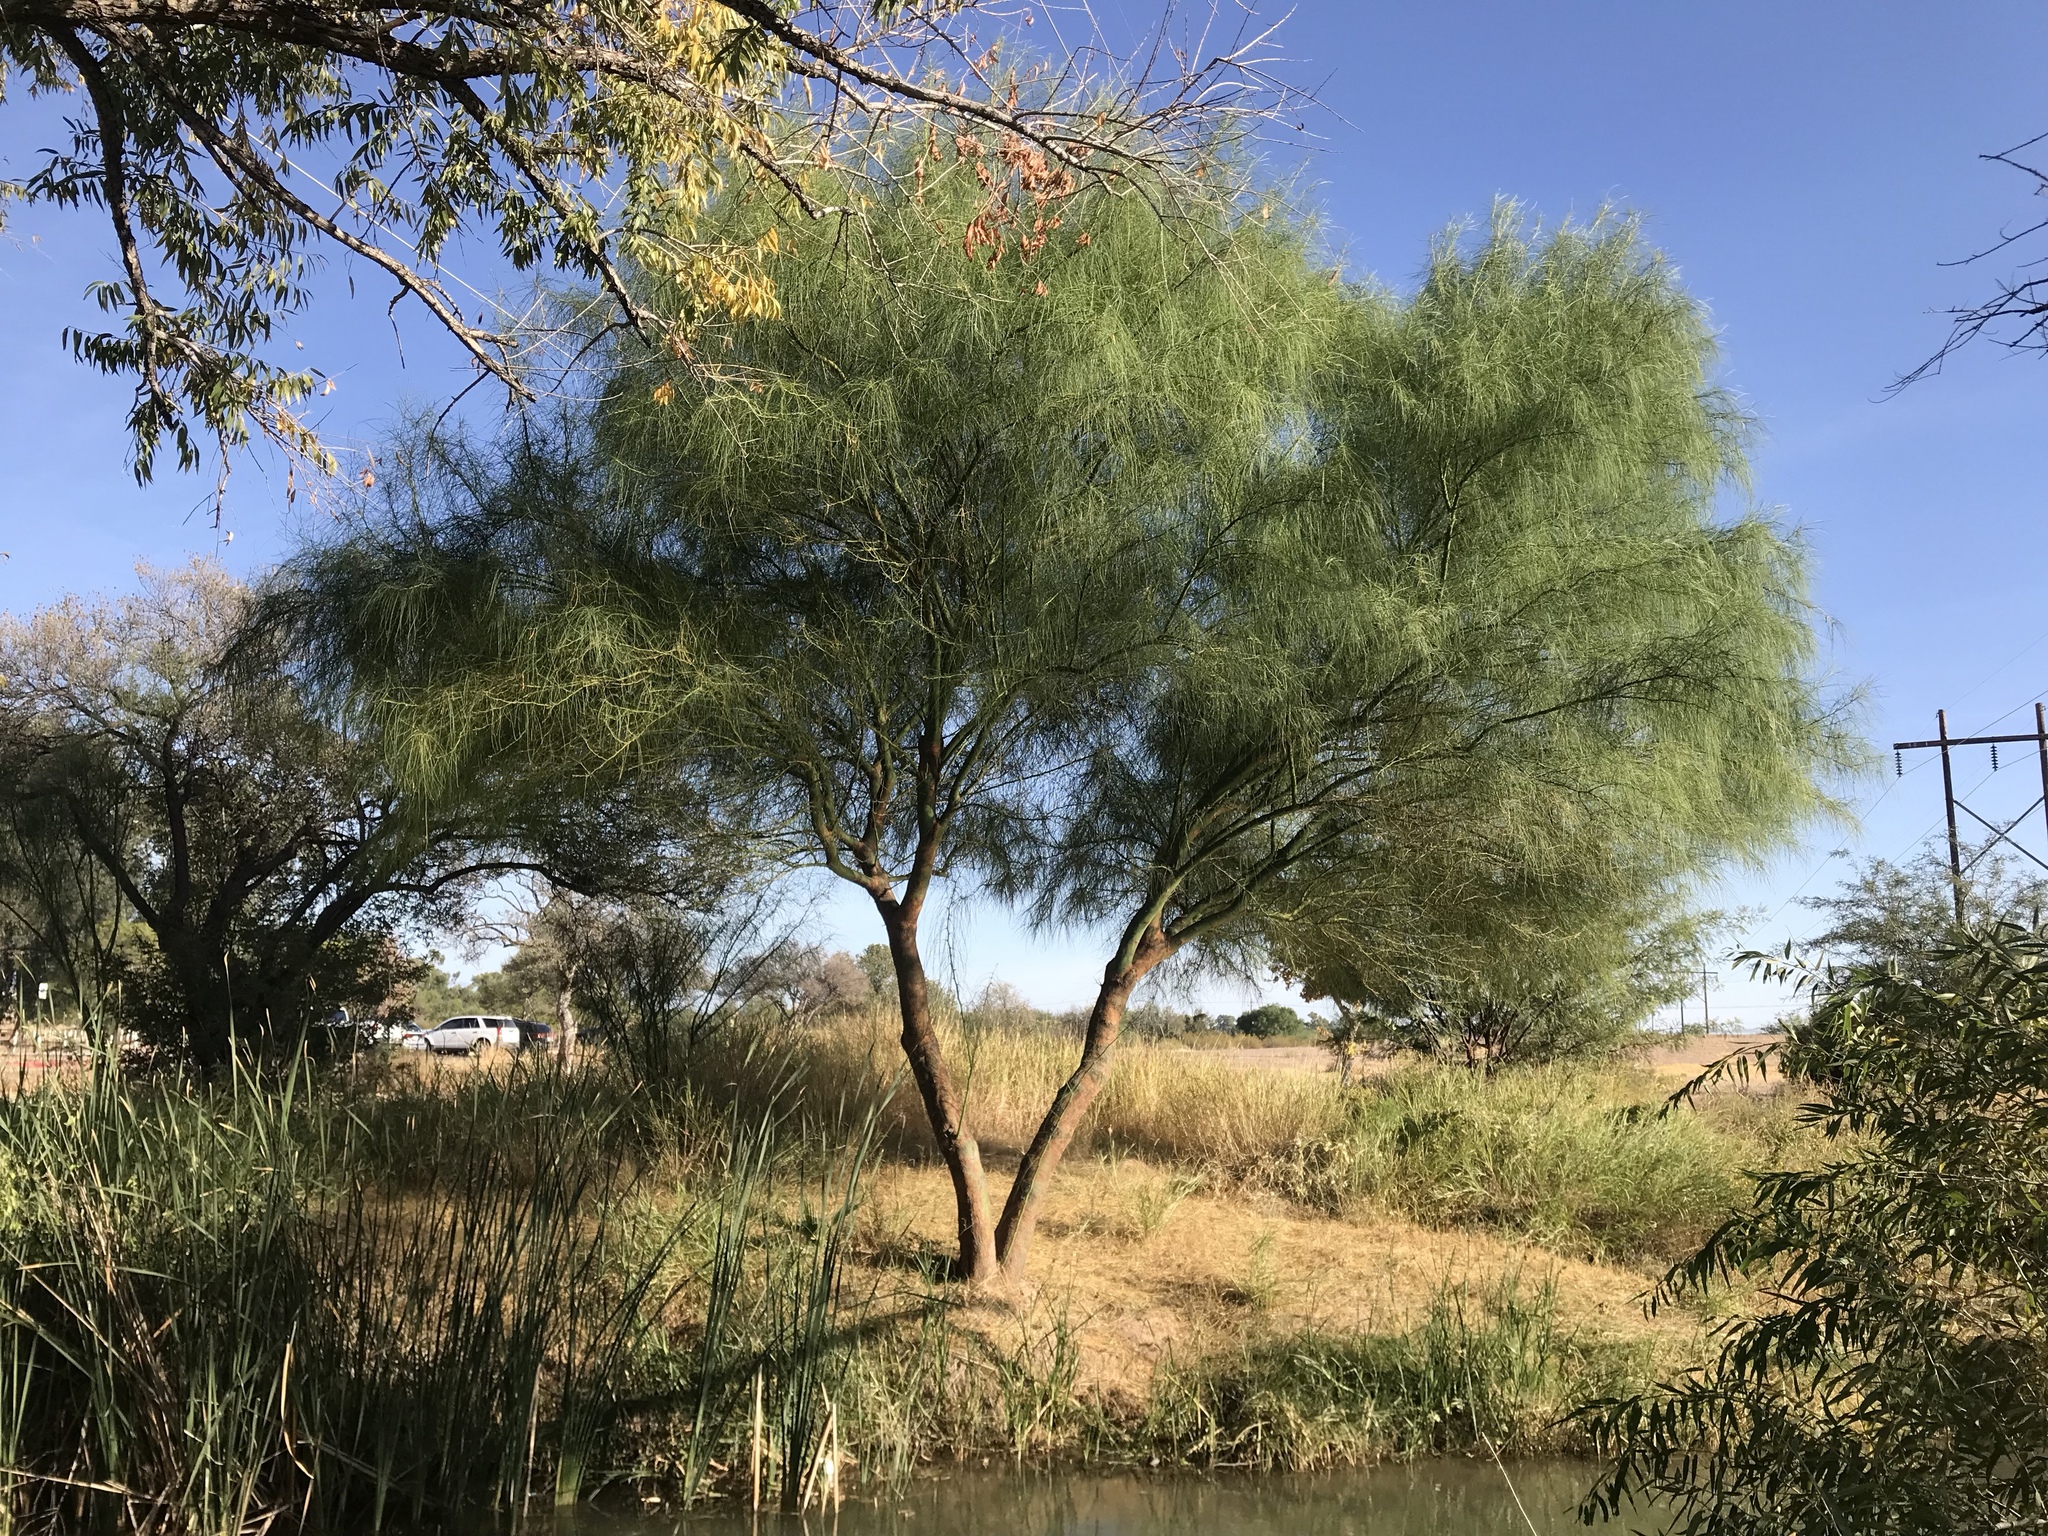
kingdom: Plantae
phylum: Tracheophyta
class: Magnoliopsida
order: Fabales
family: Fabaceae
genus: Parkinsonia
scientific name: Parkinsonia aculeata
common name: Jerusalem thorn
